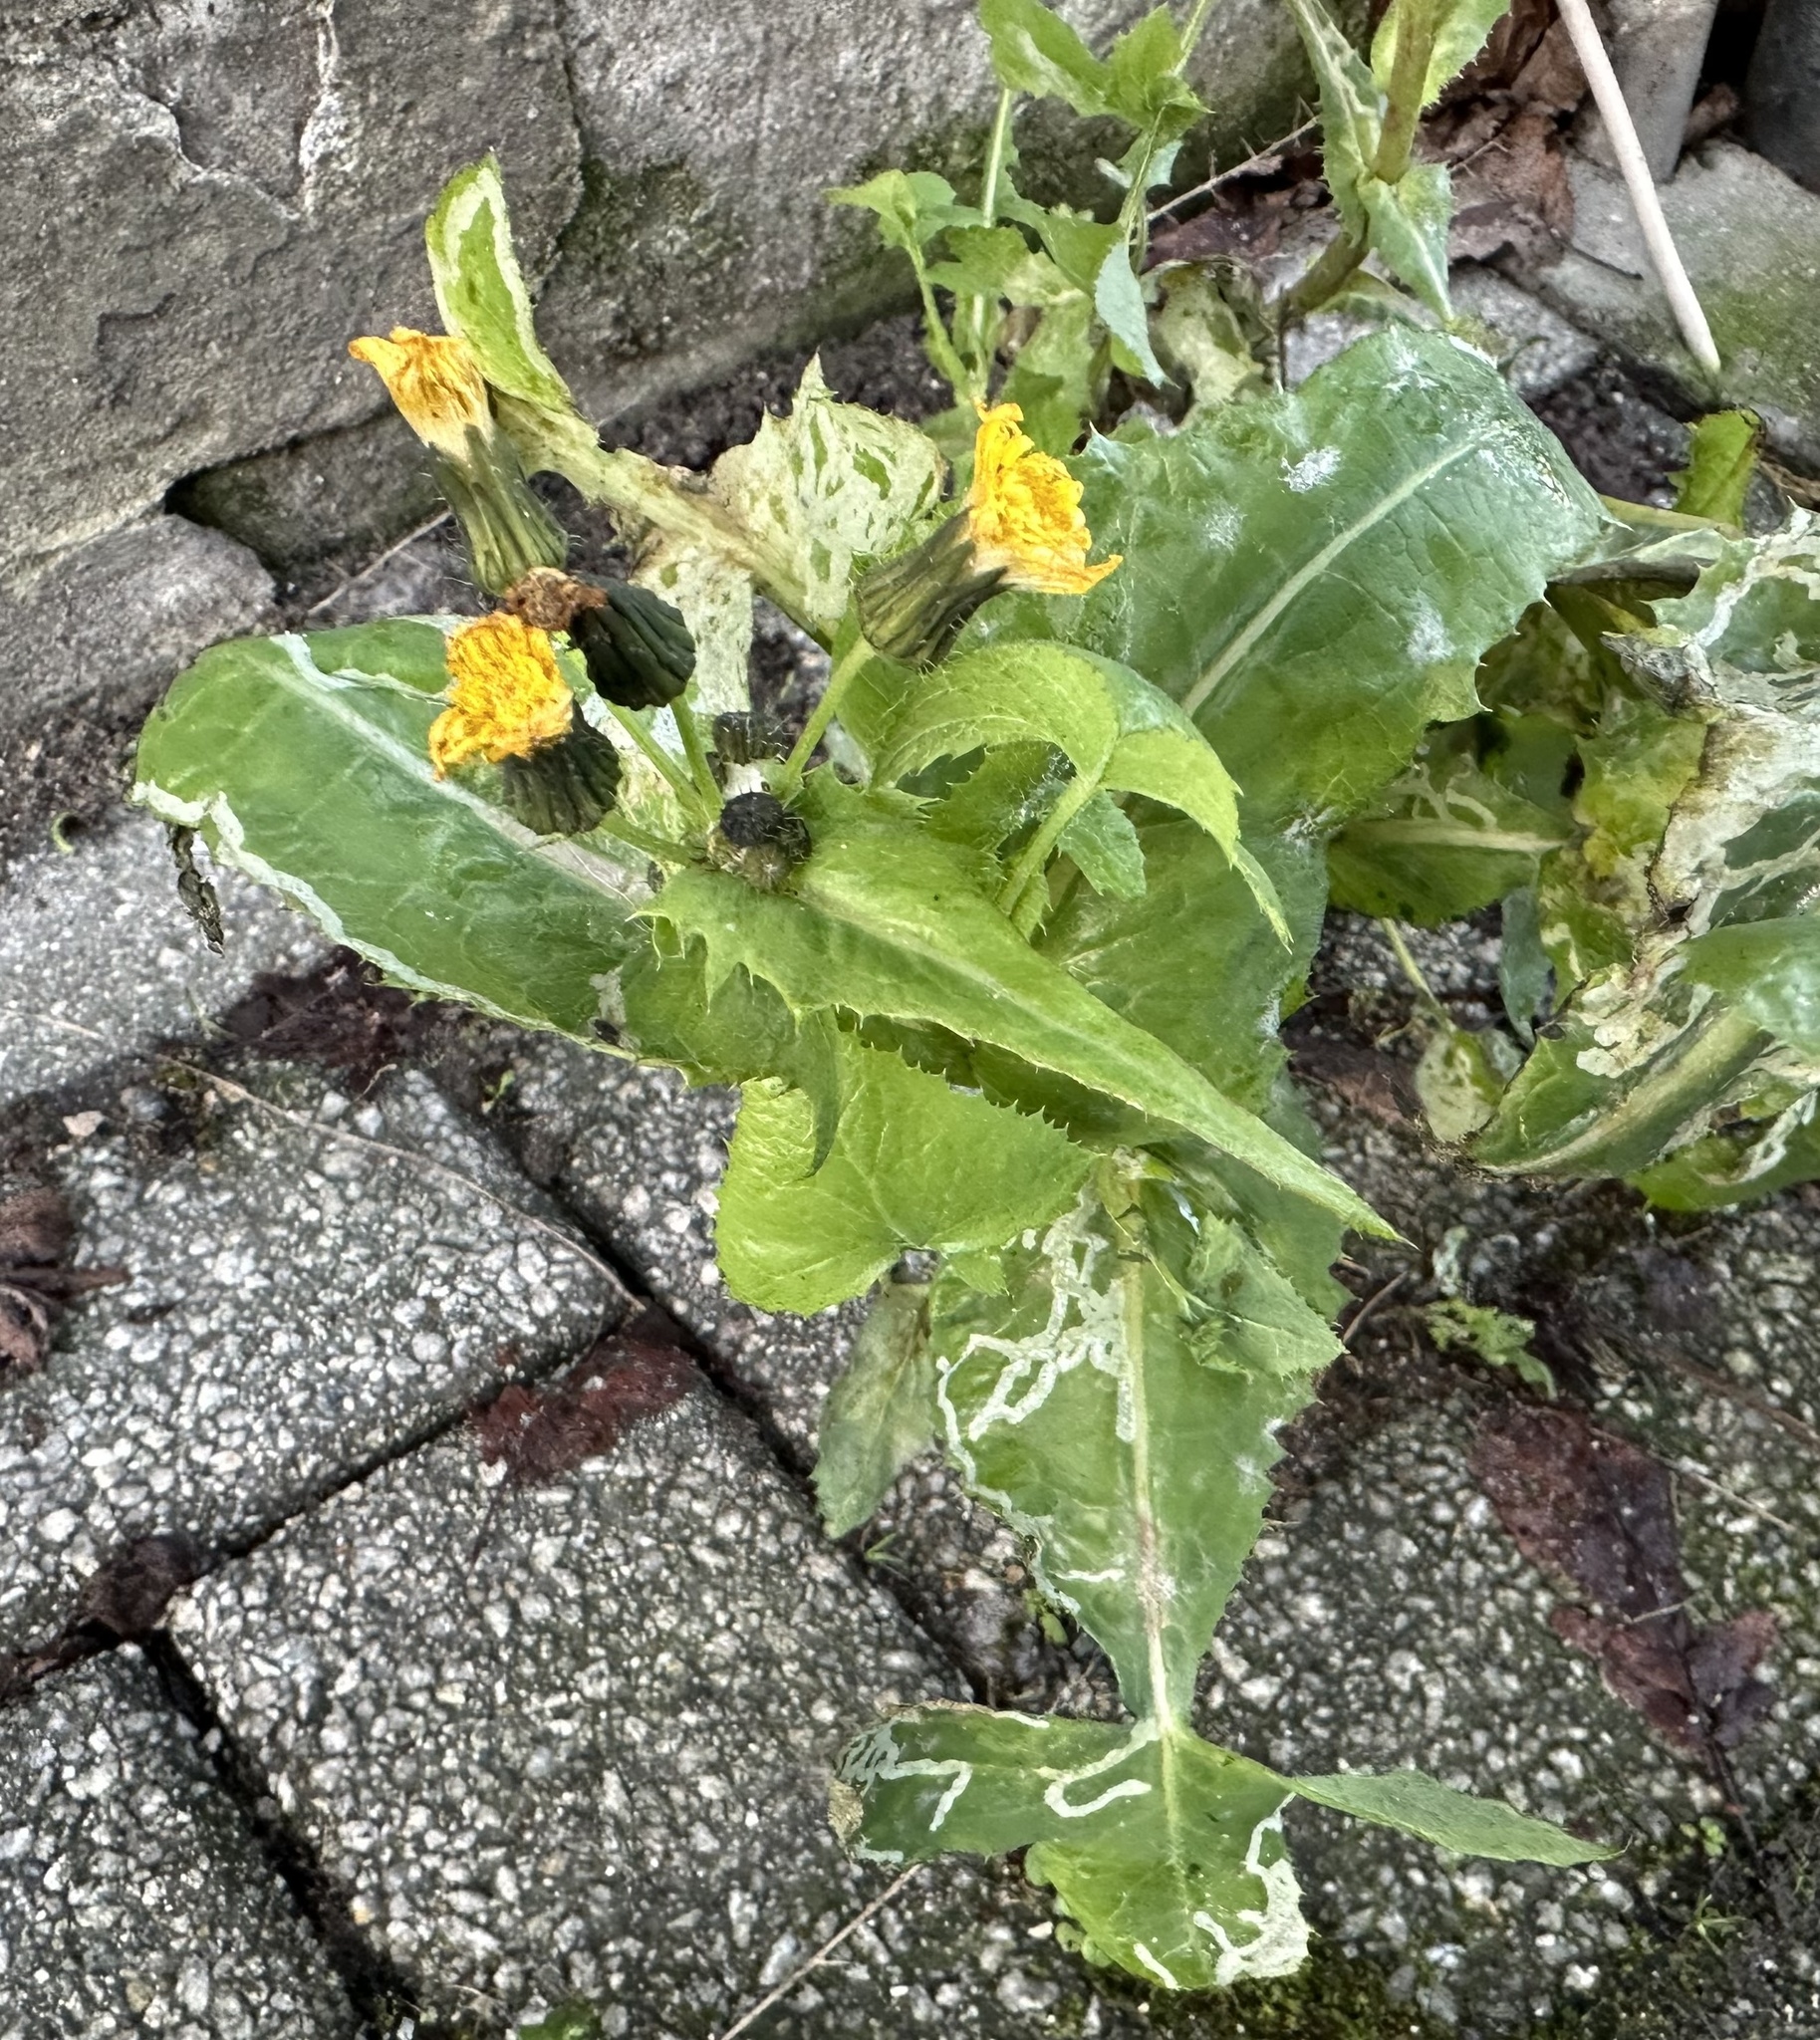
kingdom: Plantae
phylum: Tracheophyta
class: Magnoliopsida
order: Asterales
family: Asteraceae
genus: Sonchus
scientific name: Sonchus oleraceus
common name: Common sowthistle
